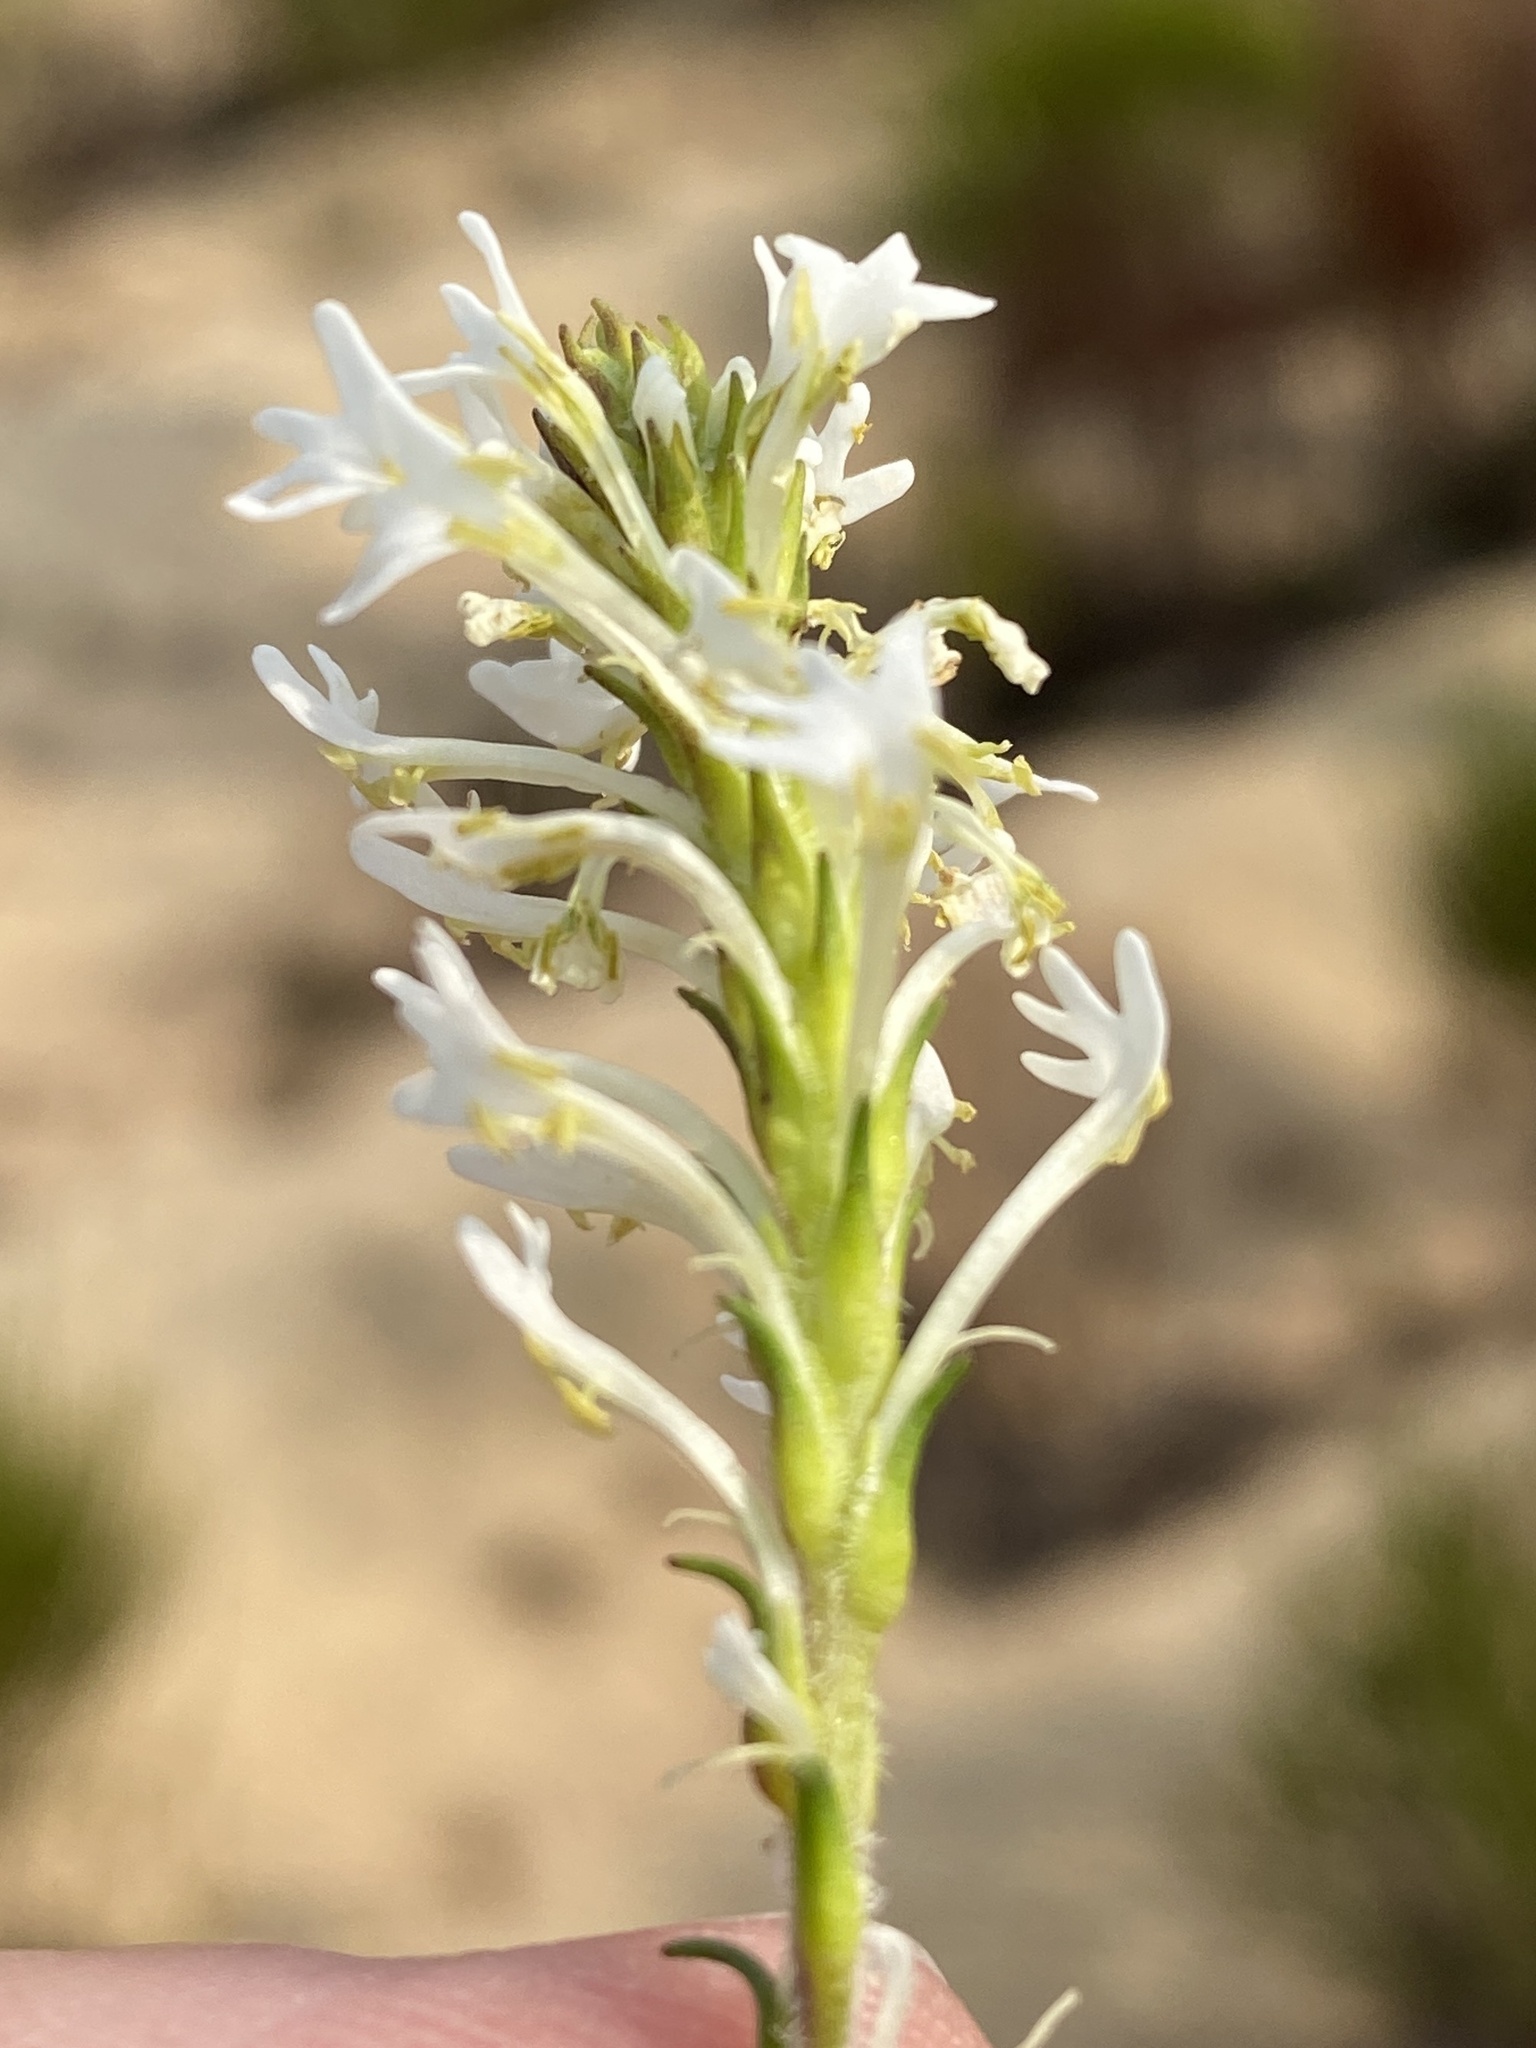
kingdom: Plantae
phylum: Tracheophyta
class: Magnoliopsida
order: Lamiales
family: Scrophulariaceae
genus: Dischisma
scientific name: Dischisma ciliatum
